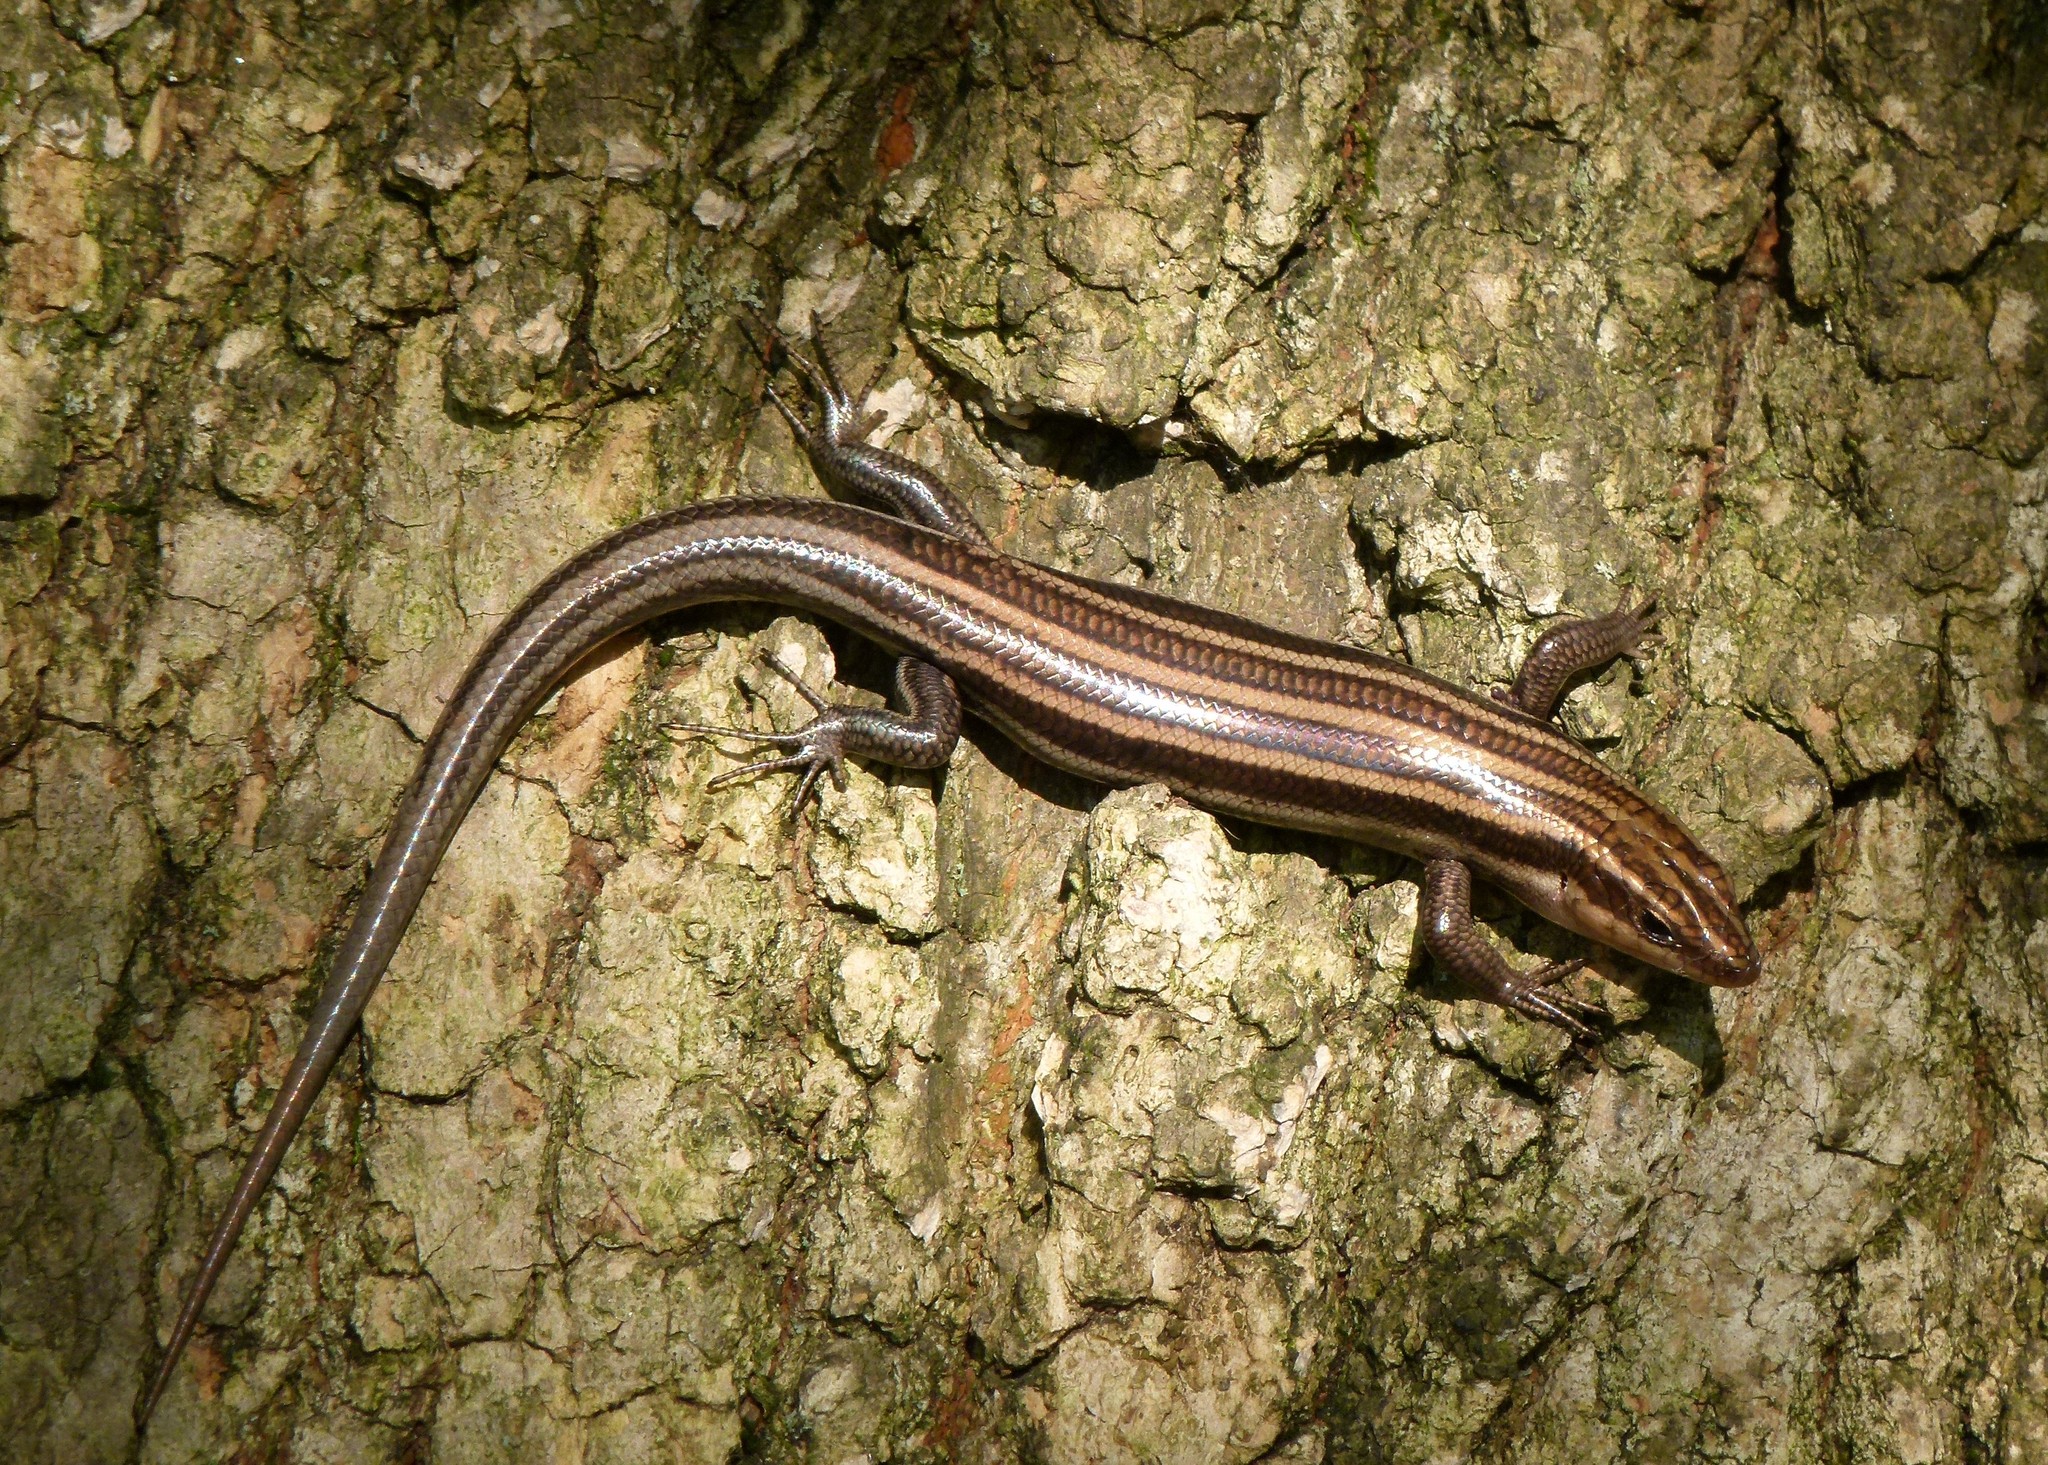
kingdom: Animalia
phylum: Chordata
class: Squamata
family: Scincidae
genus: Plestiodon
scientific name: Plestiodon fasciatus
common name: Five-lined skink
